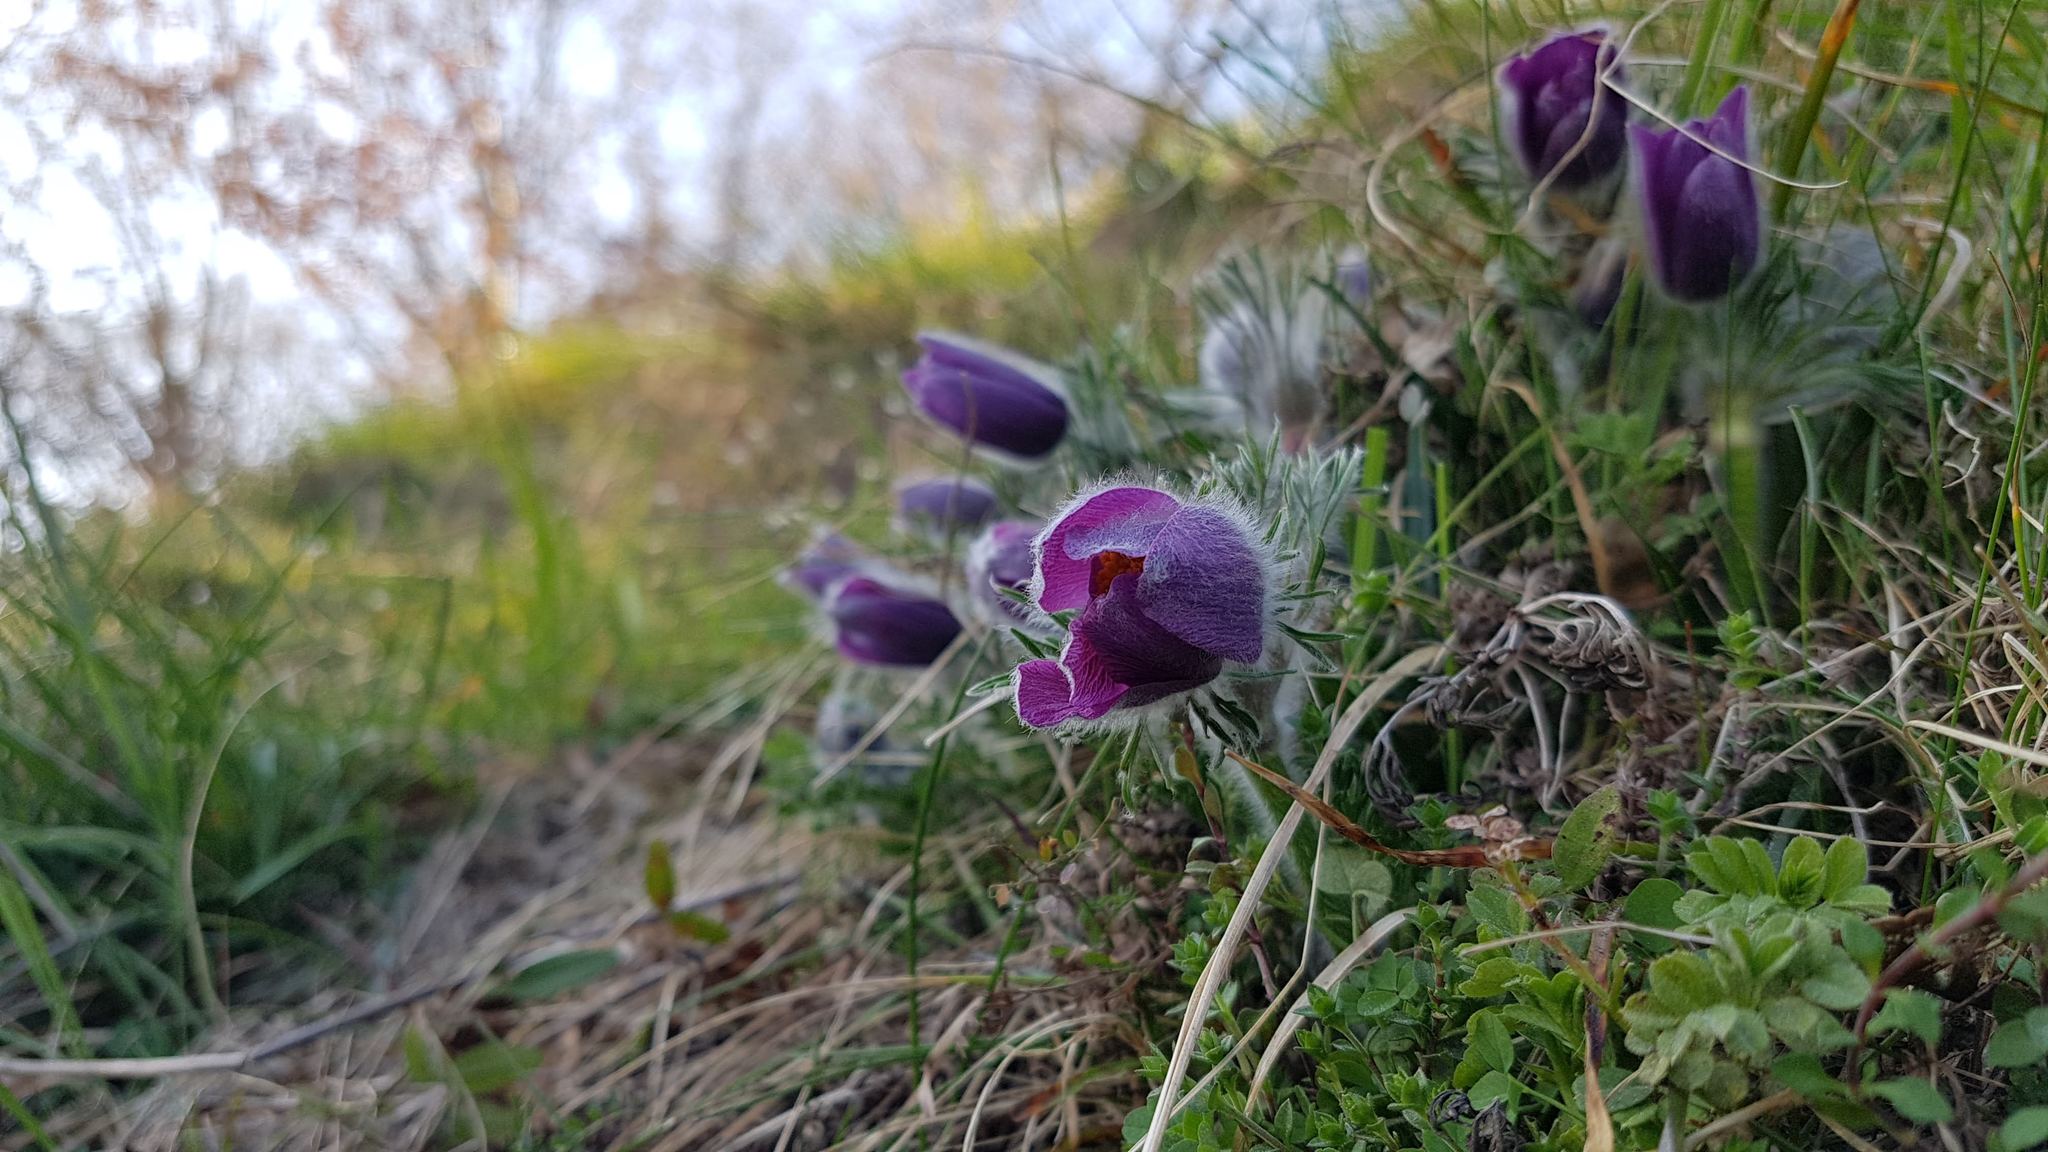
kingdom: Plantae
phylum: Tracheophyta
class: Magnoliopsida
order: Ranunculales
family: Ranunculaceae
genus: Pulsatilla
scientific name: Pulsatilla vulgaris
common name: Pasqueflower
